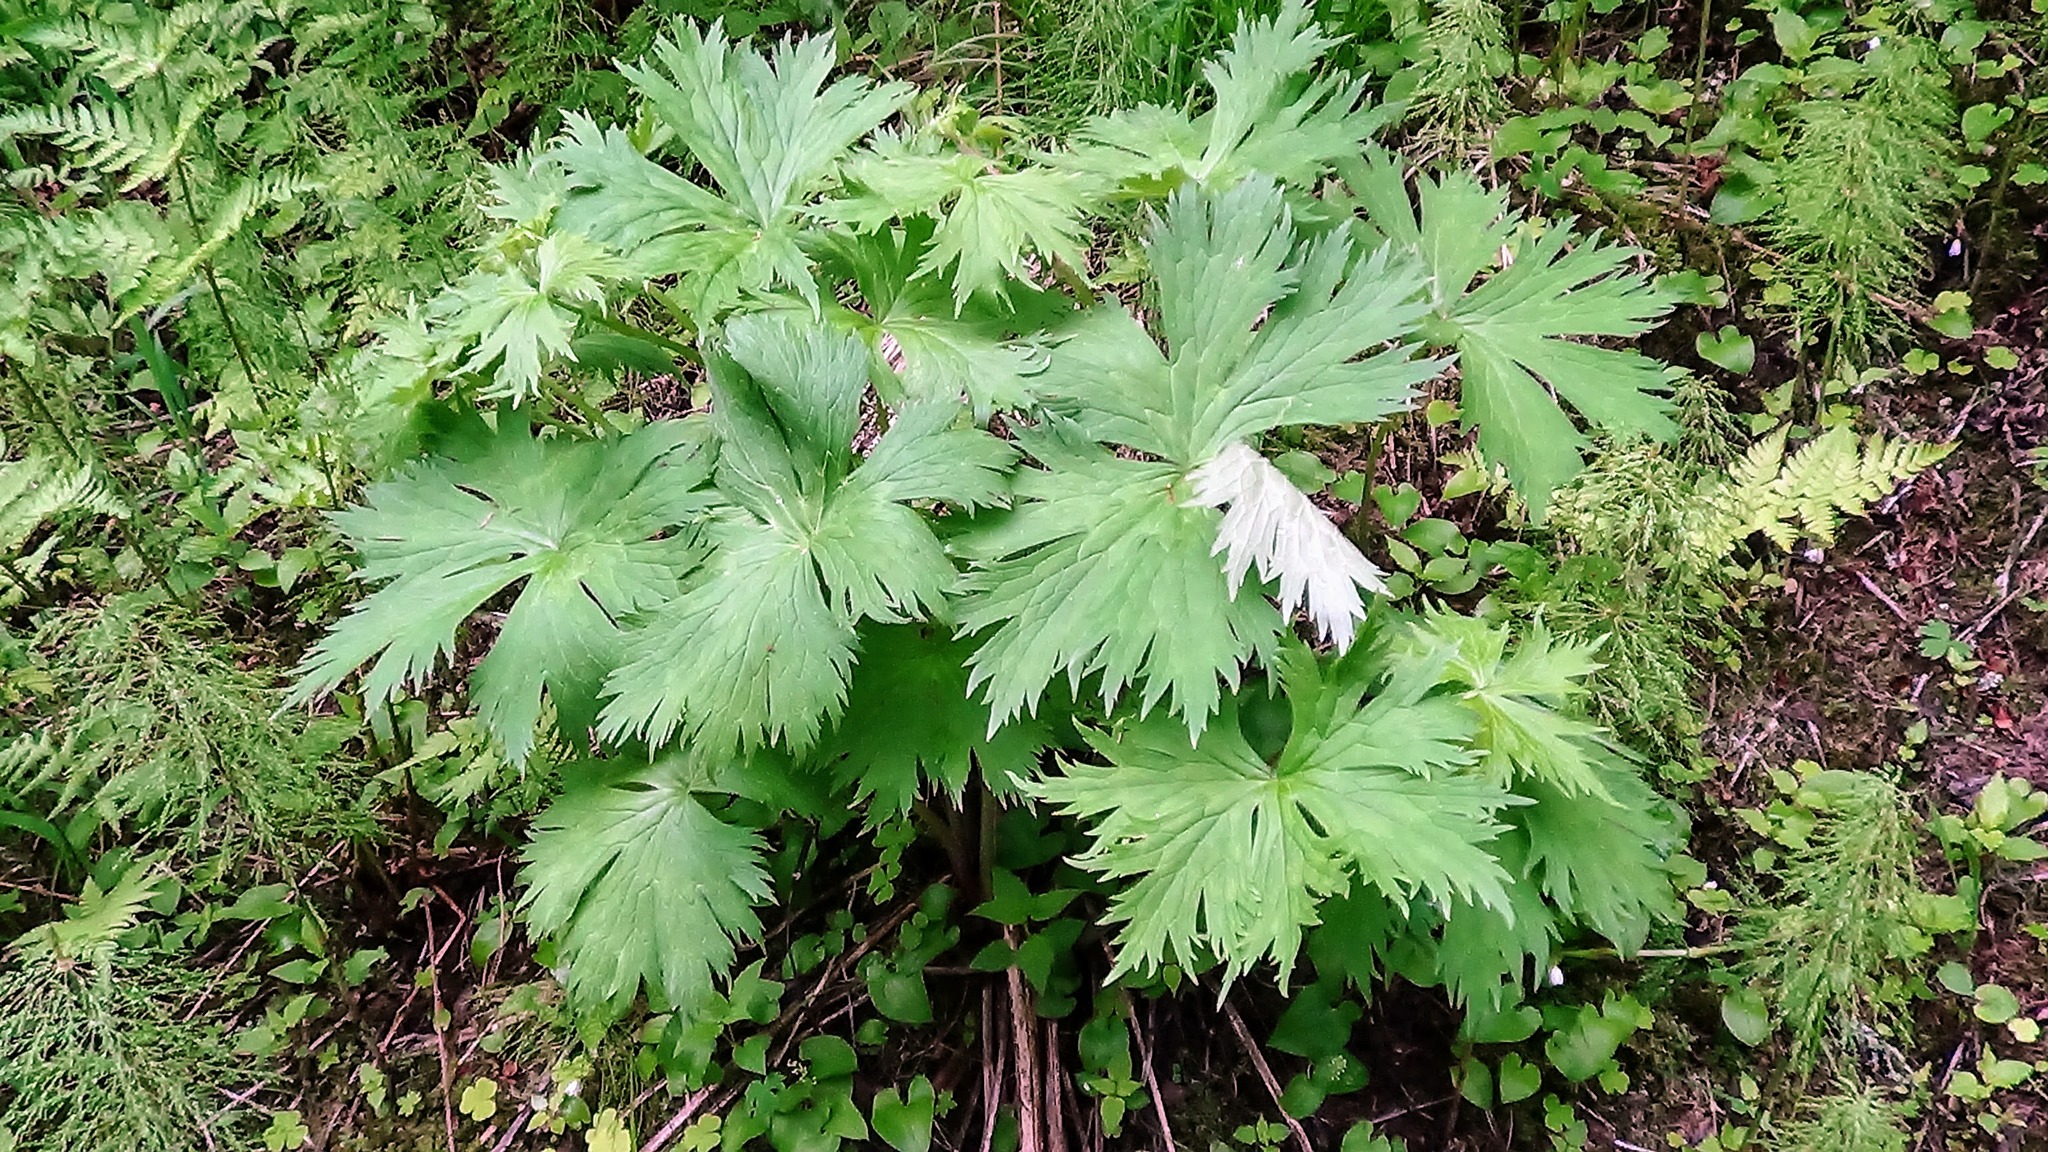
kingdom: Plantae
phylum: Tracheophyta
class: Magnoliopsida
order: Ranunculales
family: Ranunculaceae
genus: Aconitum
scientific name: Aconitum septentrionale
